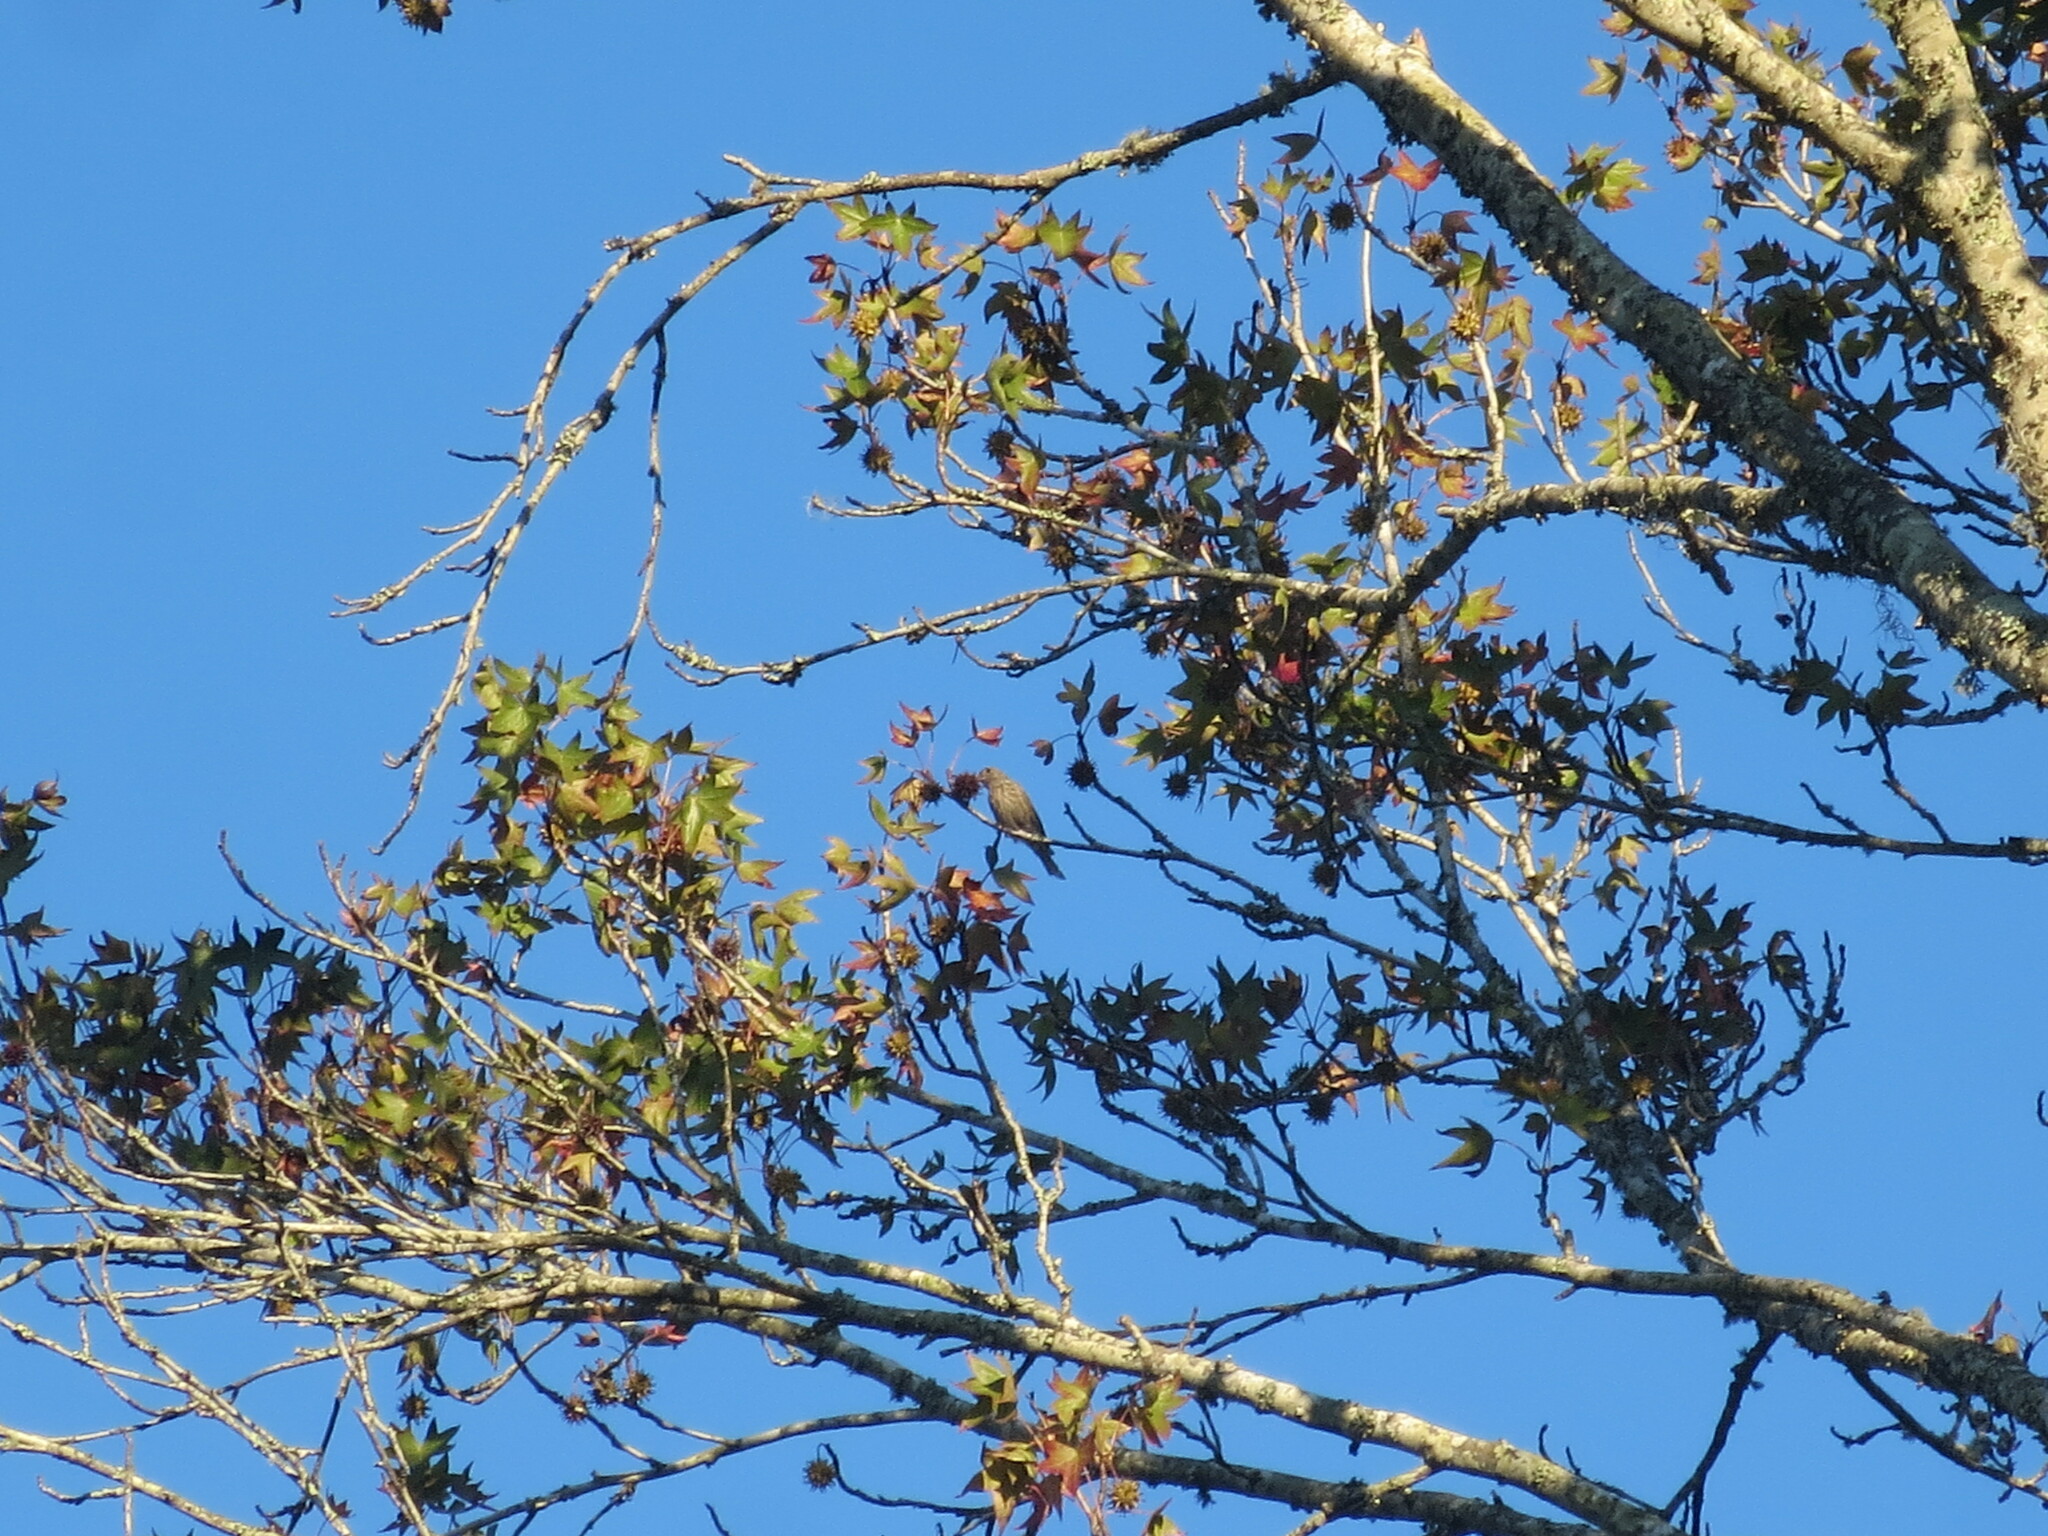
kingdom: Plantae
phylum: Tracheophyta
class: Magnoliopsida
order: Saxifragales
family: Altingiaceae
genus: Liquidambar
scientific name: Liquidambar styraciflua
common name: Sweet gum
